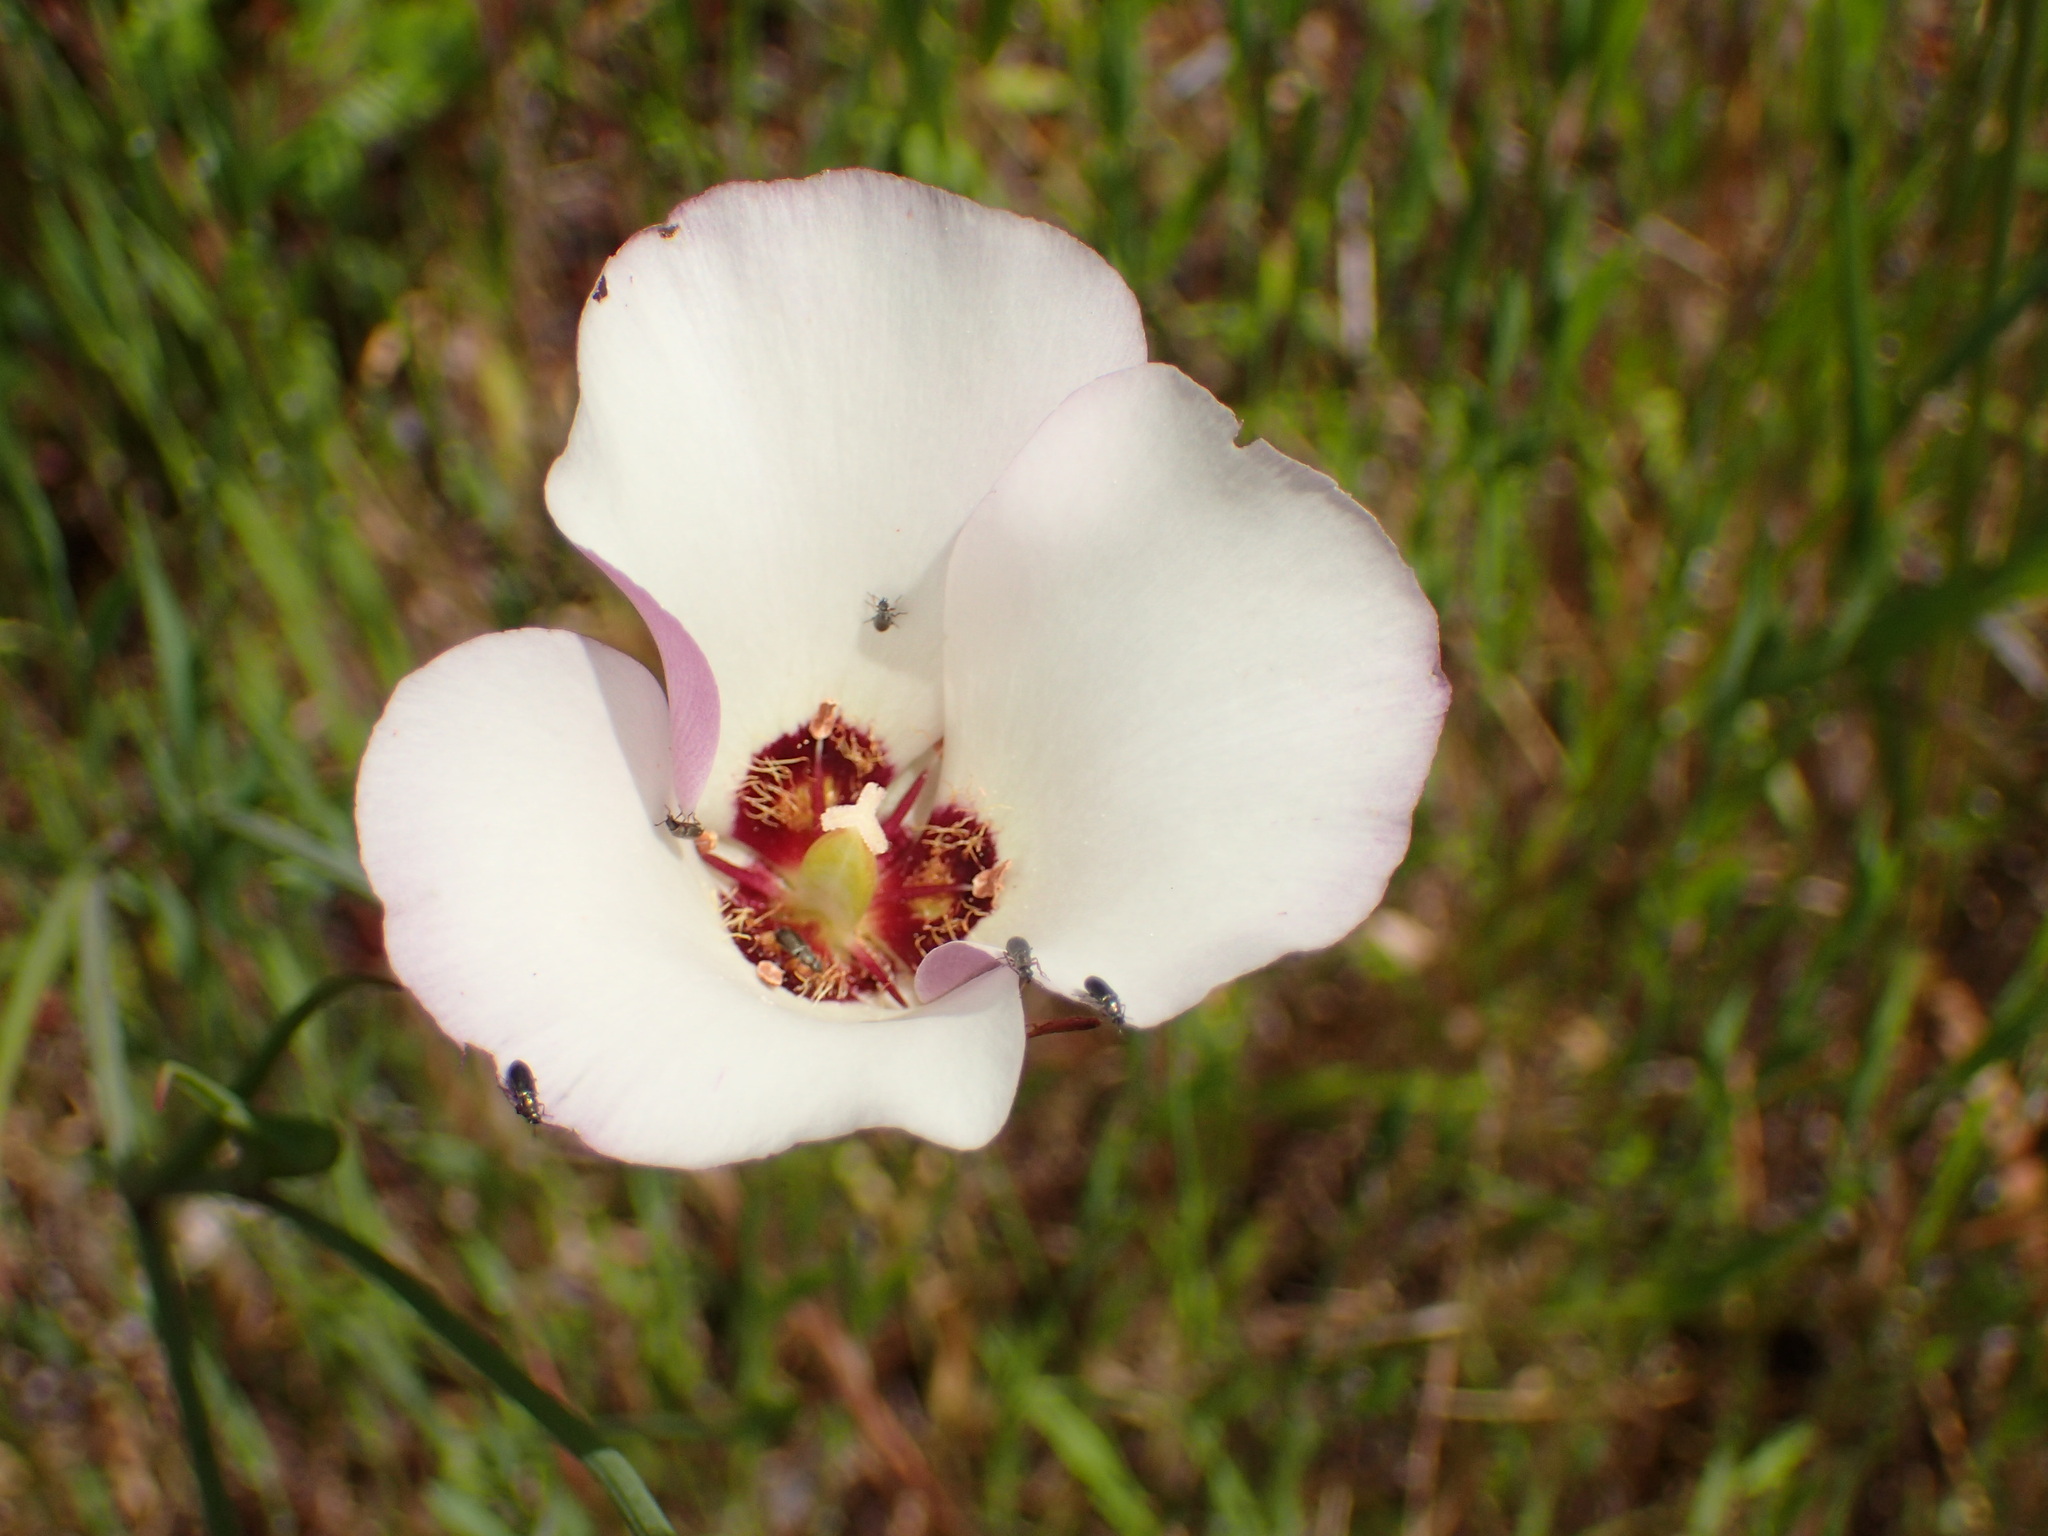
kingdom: Plantae
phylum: Tracheophyta
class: Liliopsida
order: Liliales
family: Liliaceae
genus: Calochortus
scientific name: Calochortus catalinae
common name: Catalina mariposa-lily
